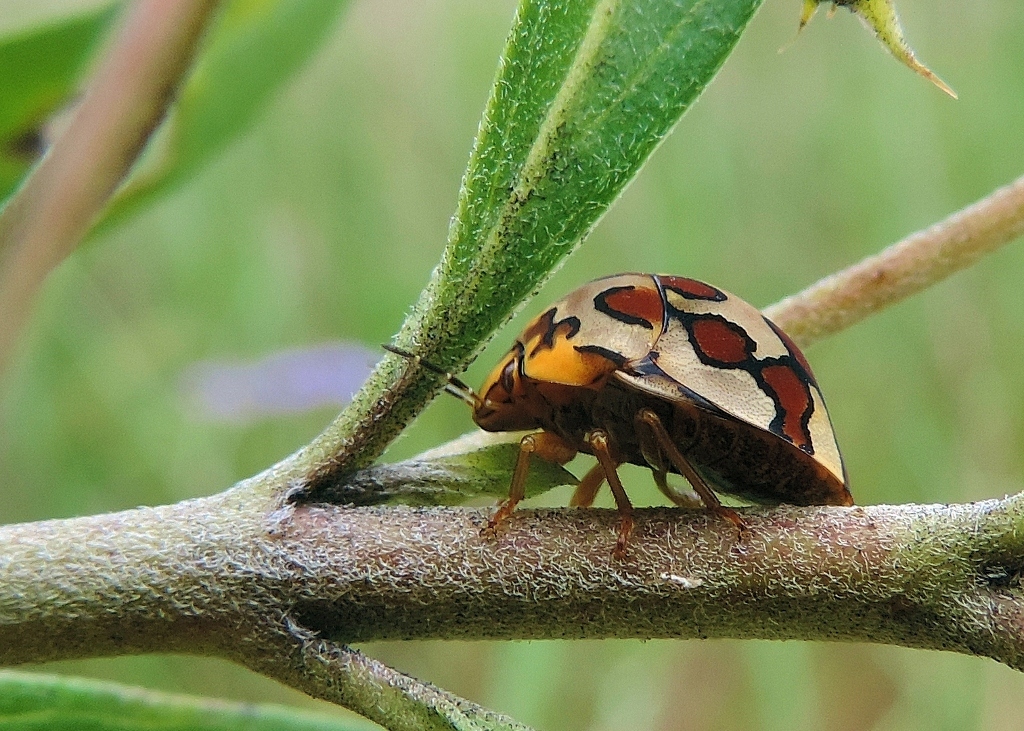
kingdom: Animalia
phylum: Arthropoda
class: Insecta
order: Hemiptera
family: Scutelleridae
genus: Sphaerocoris
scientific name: Sphaerocoris
